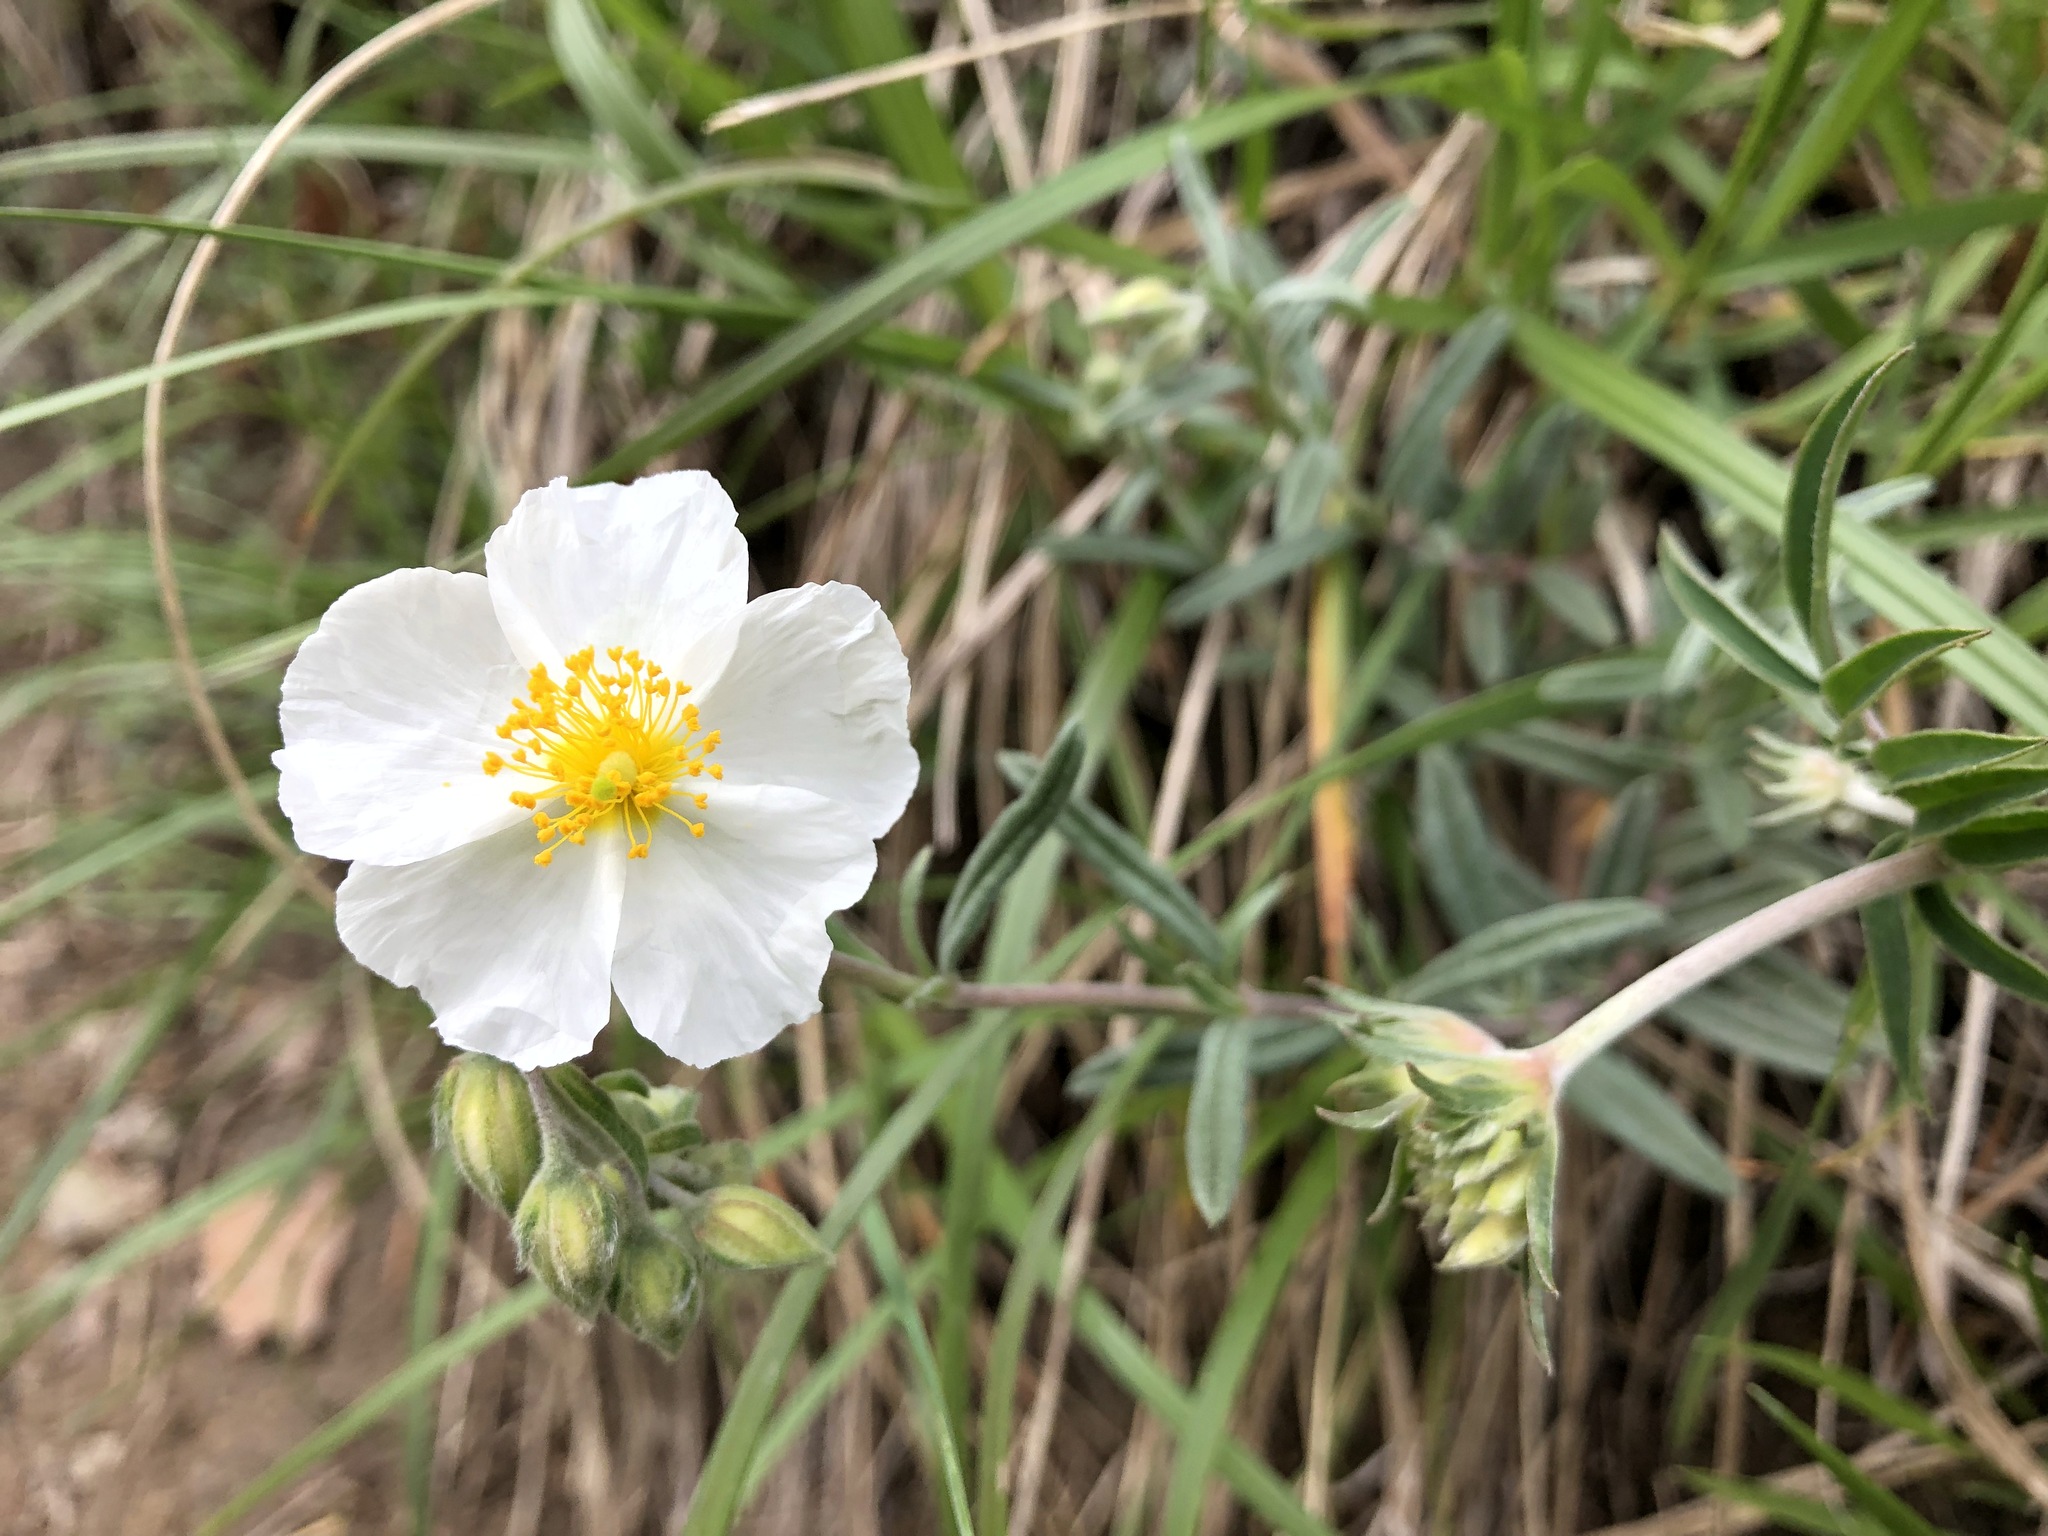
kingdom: Plantae
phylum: Tracheophyta
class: Magnoliopsida
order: Malvales
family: Cistaceae
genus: Helianthemum
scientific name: Helianthemum apenninum
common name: White rock-rose
